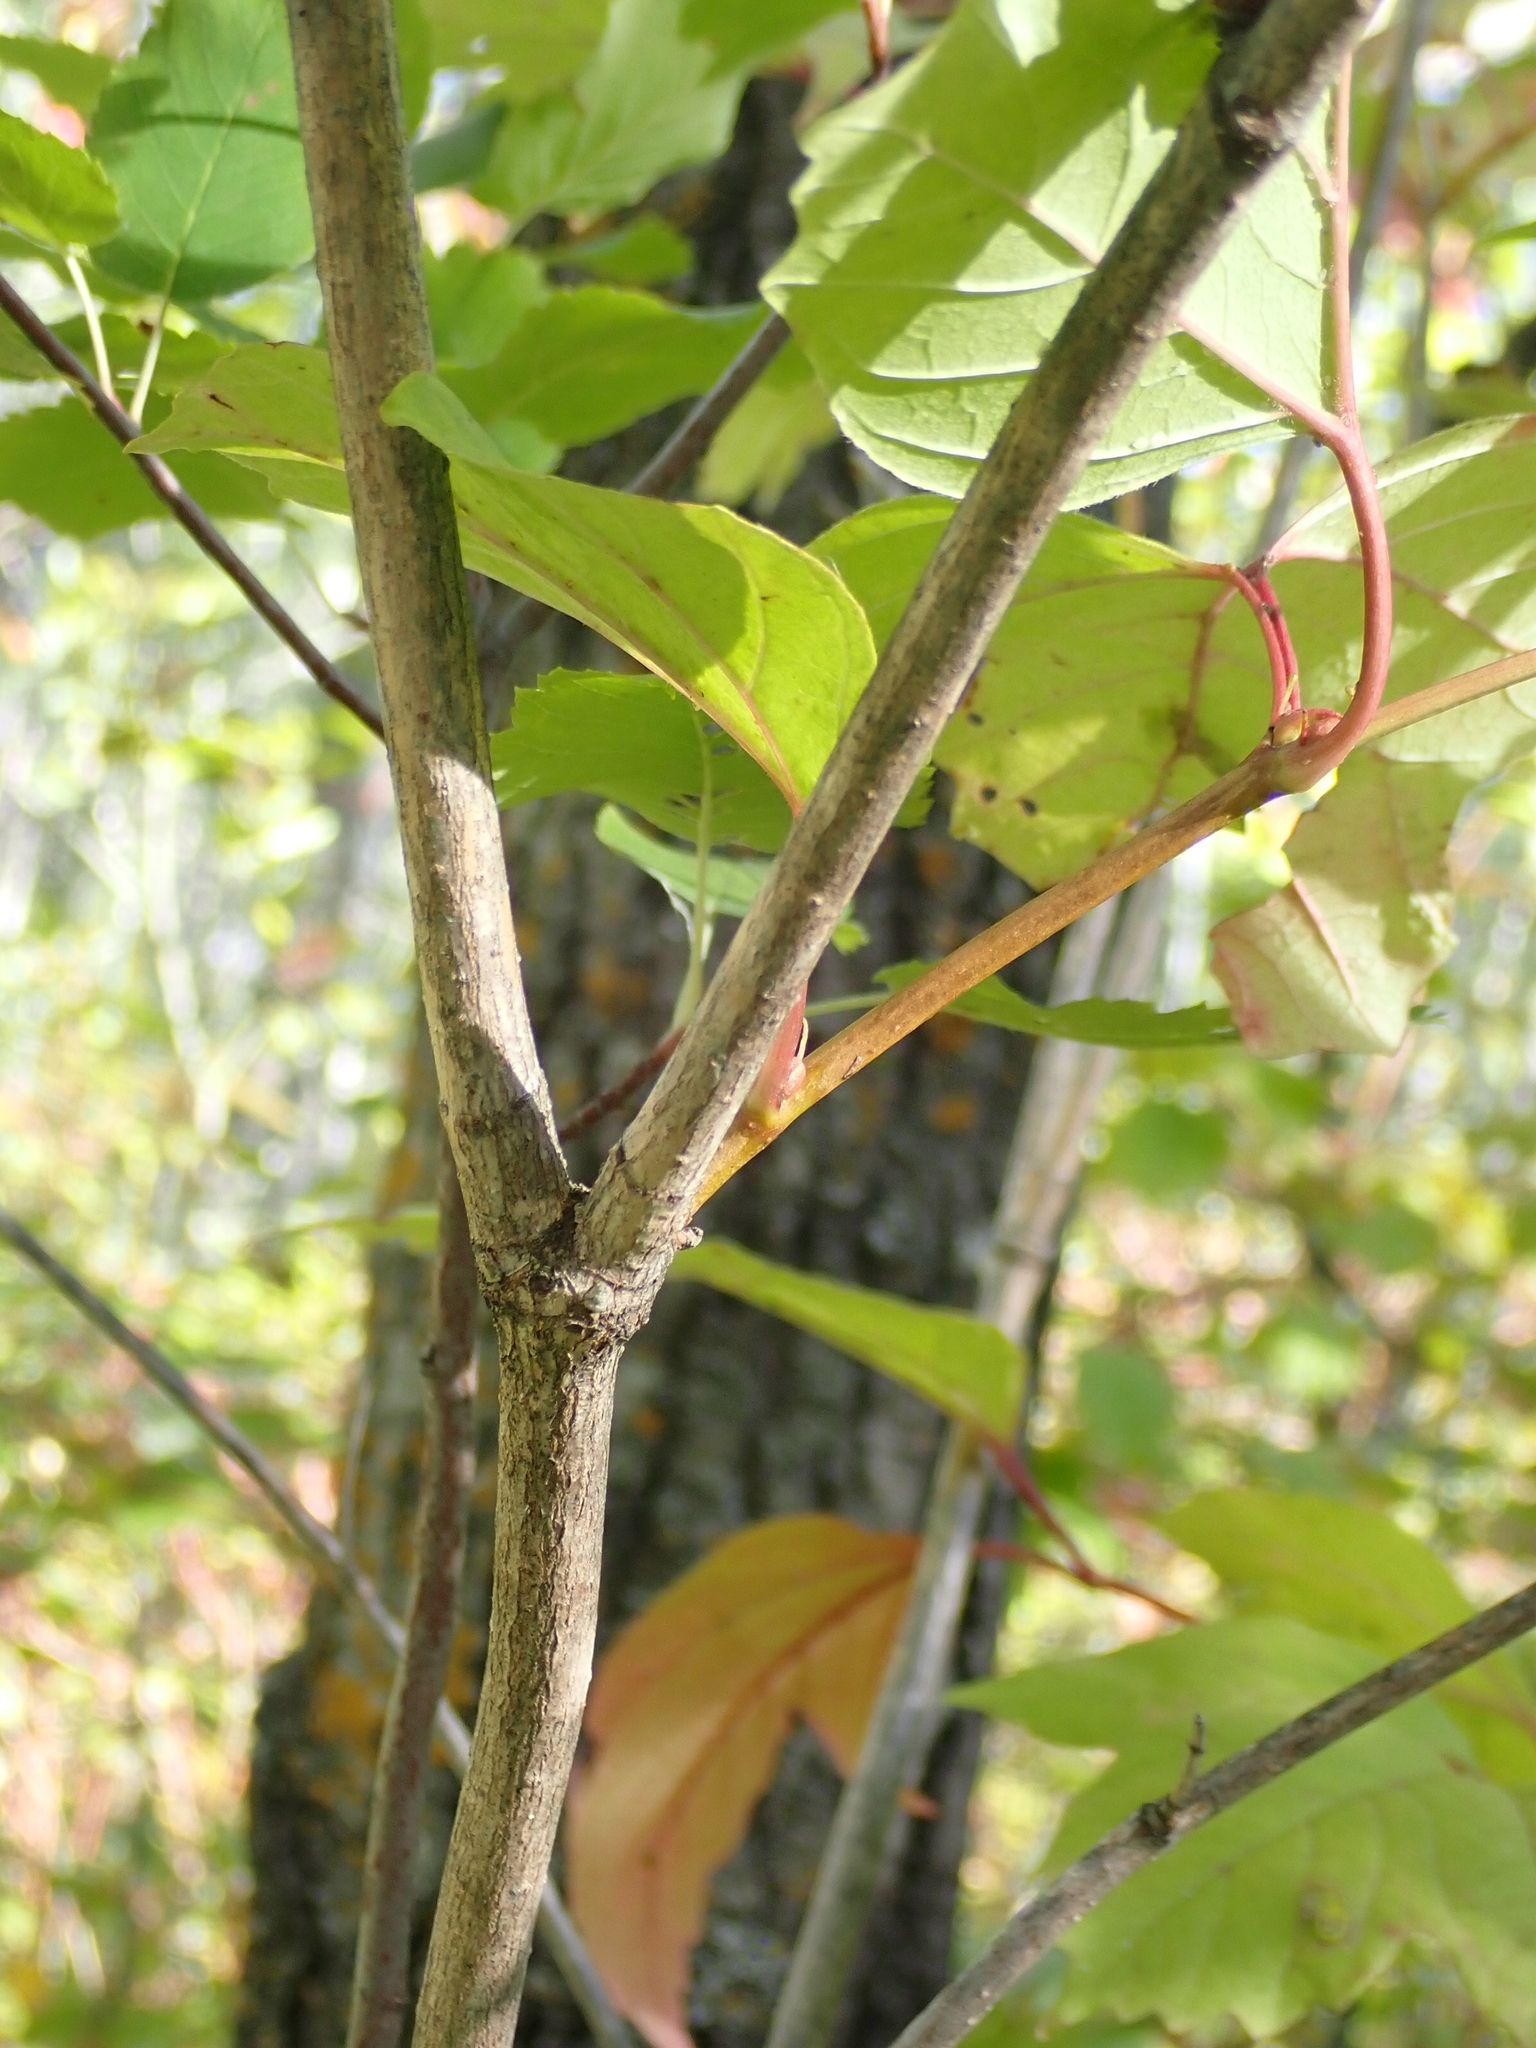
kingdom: Plantae
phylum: Tracheophyta
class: Magnoliopsida
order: Dipsacales
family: Viburnaceae
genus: Viburnum
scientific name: Viburnum trilobum
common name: American cranberrybush
